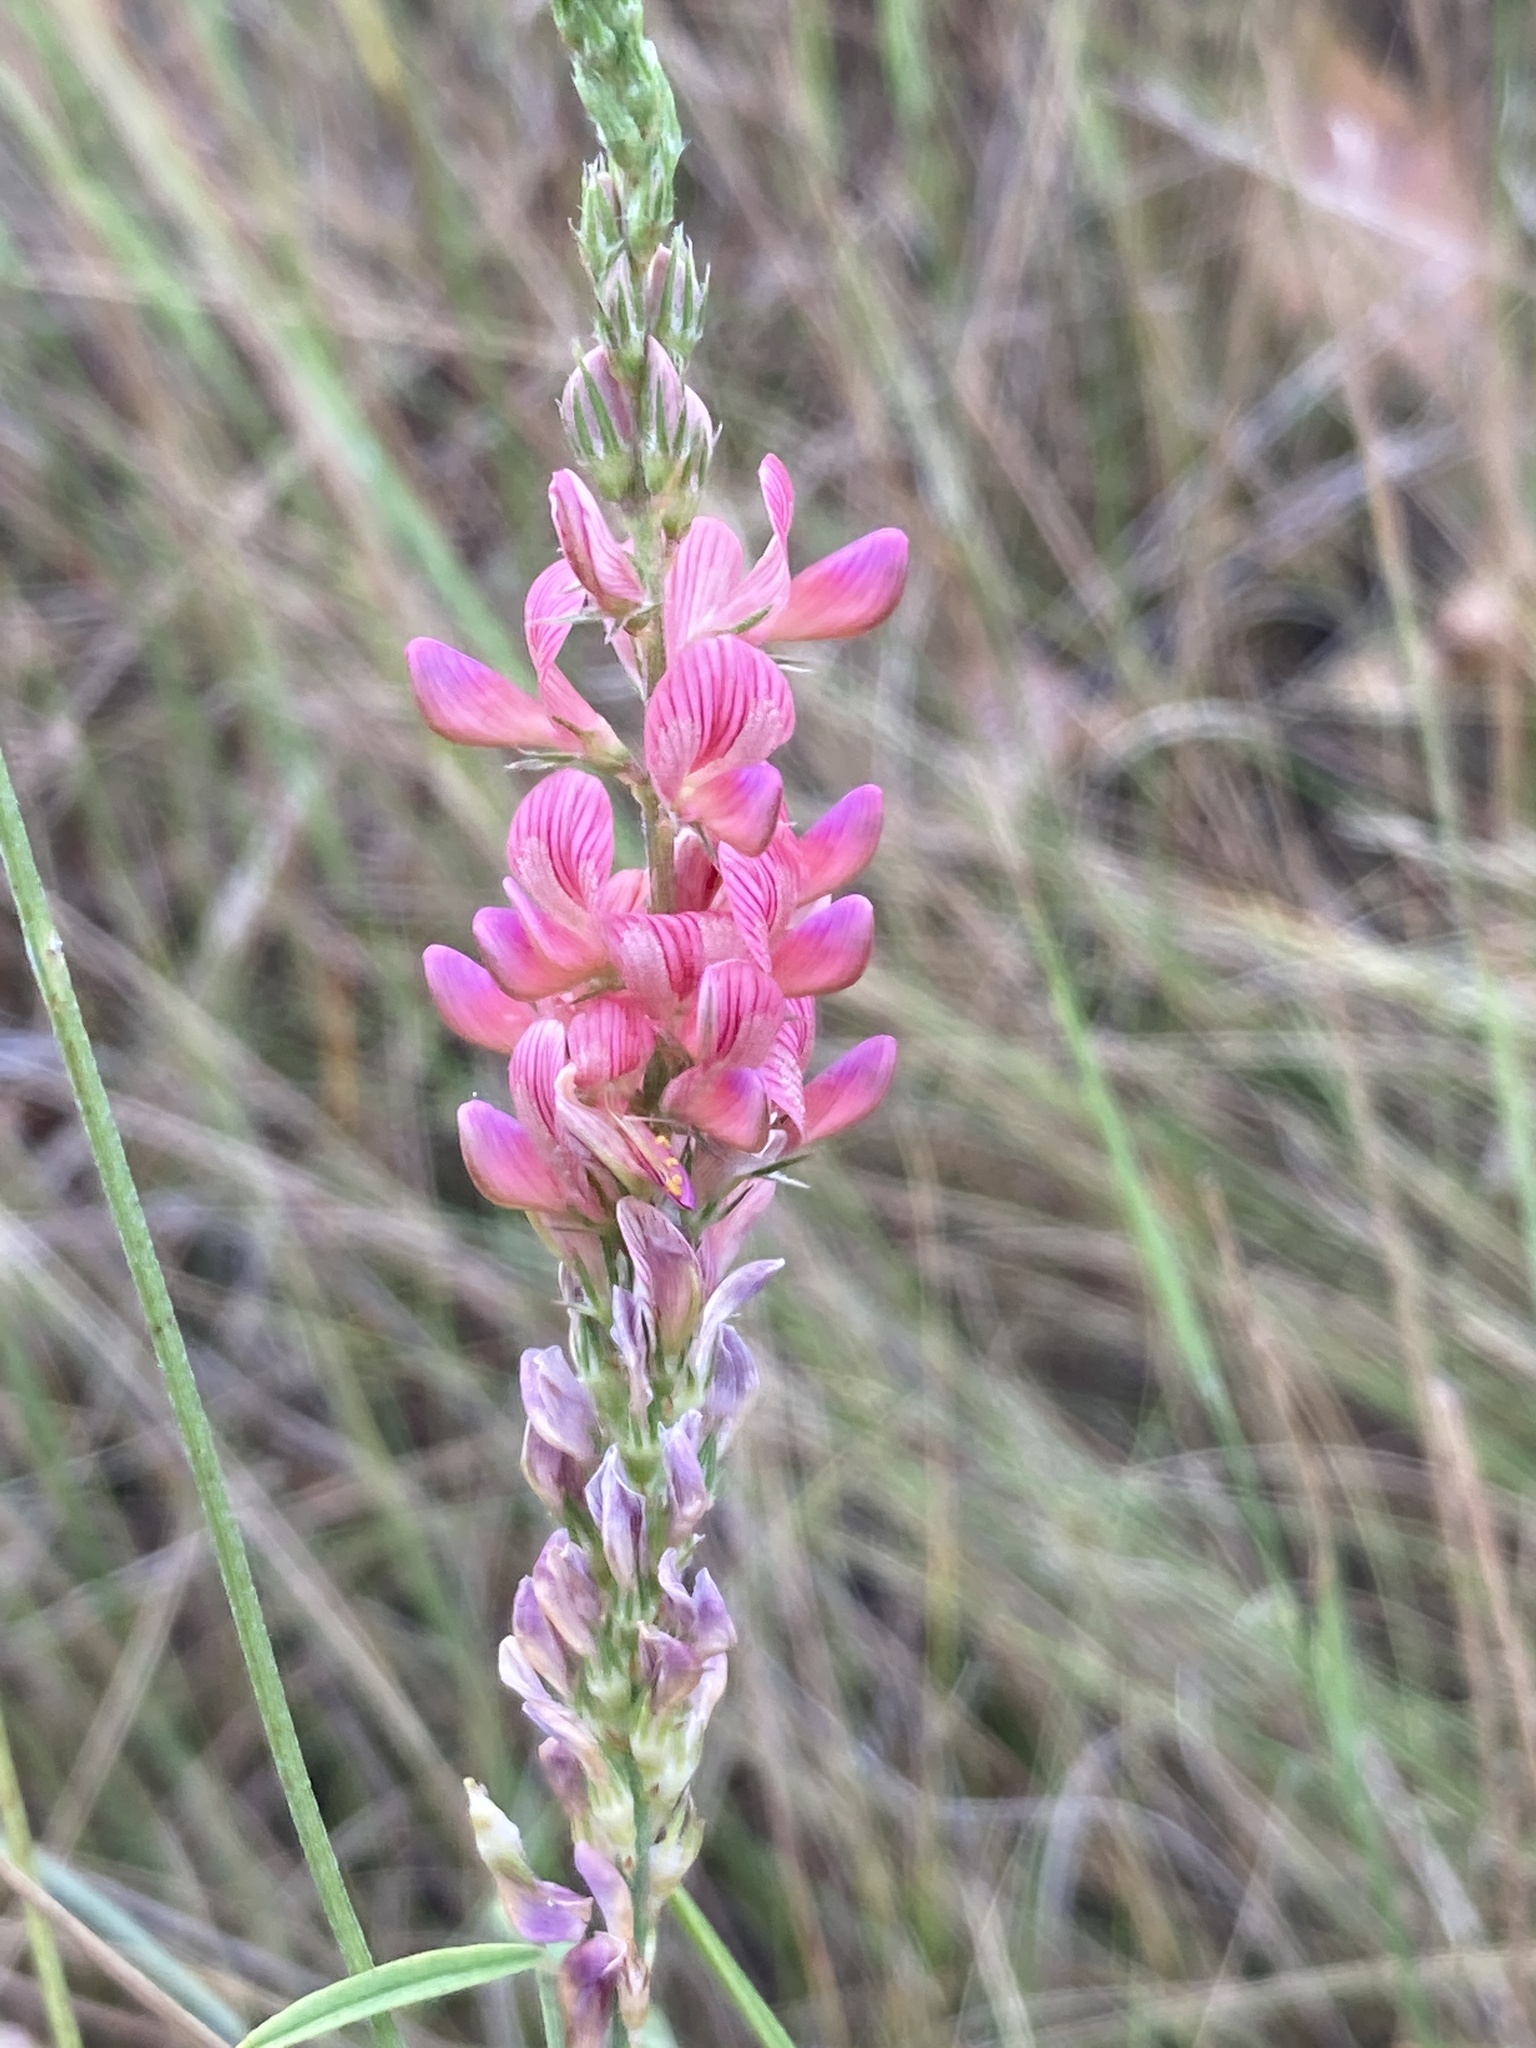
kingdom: Plantae
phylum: Tracheophyta
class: Magnoliopsida
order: Fabales
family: Fabaceae
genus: Onobrychis
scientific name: Onobrychis viciifolia
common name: Sainfoin
